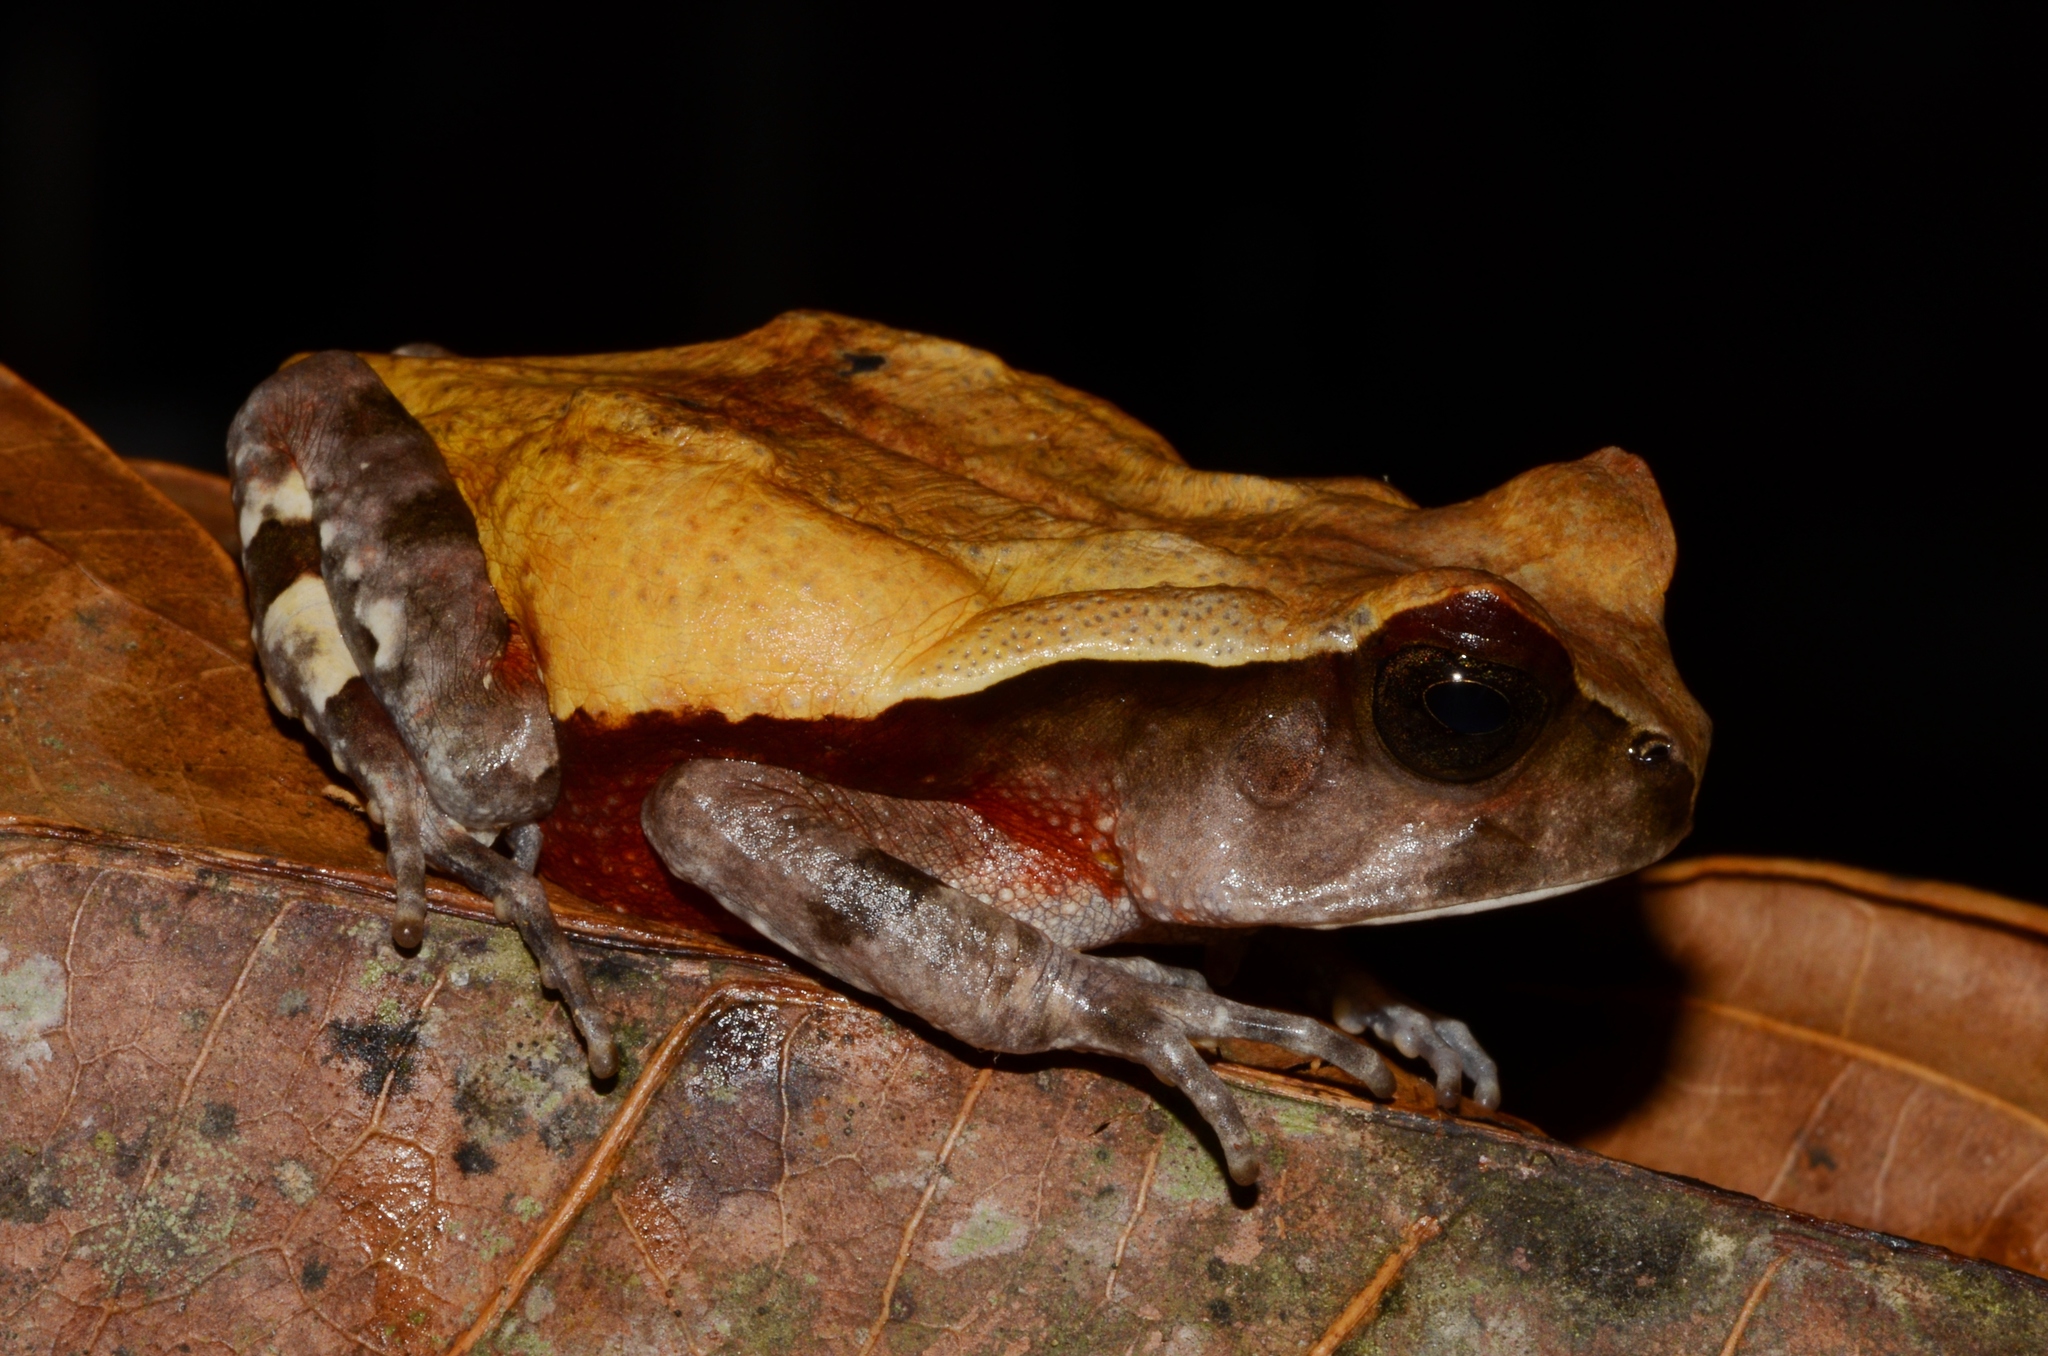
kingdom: Animalia
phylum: Chordata
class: Amphibia
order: Anura
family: Bufonidae
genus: Sclerophrys
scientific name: Sclerophrys superciliaris
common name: Cameroon toad
